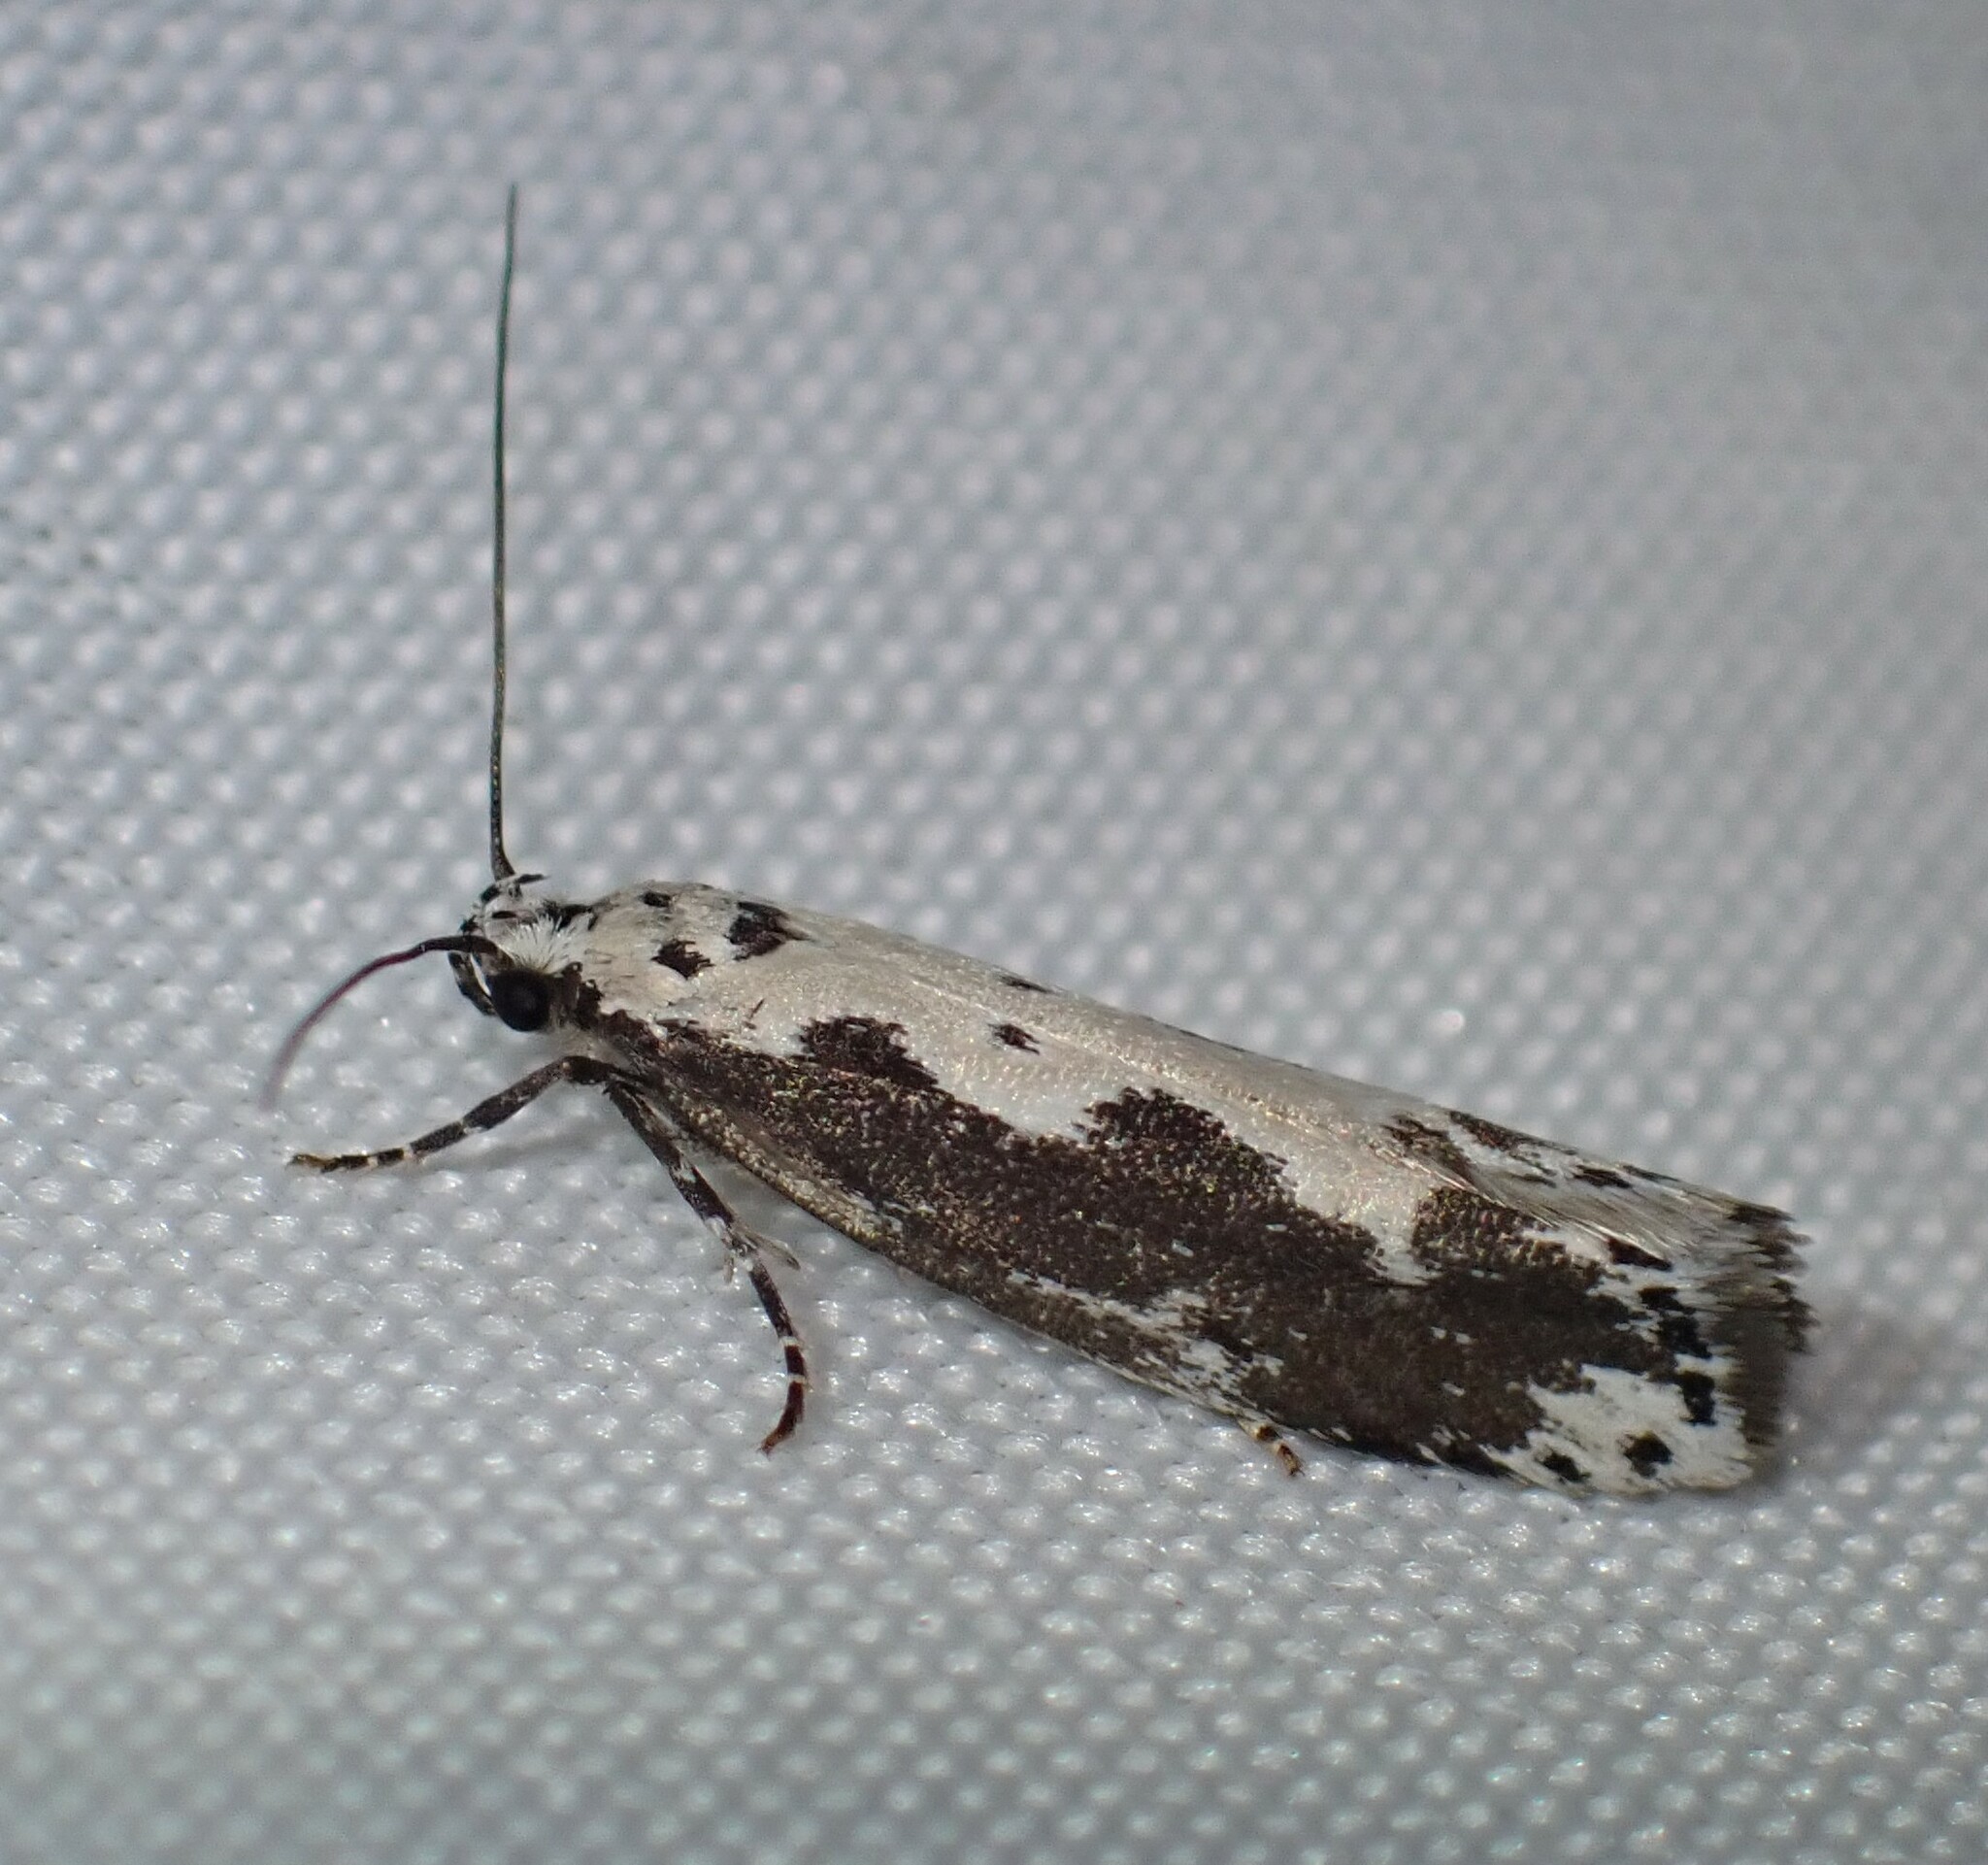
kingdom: Animalia
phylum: Arthropoda
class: Insecta
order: Lepidoptera
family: Ethmiidae
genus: Ethmia
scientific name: Ethmia marmorea
